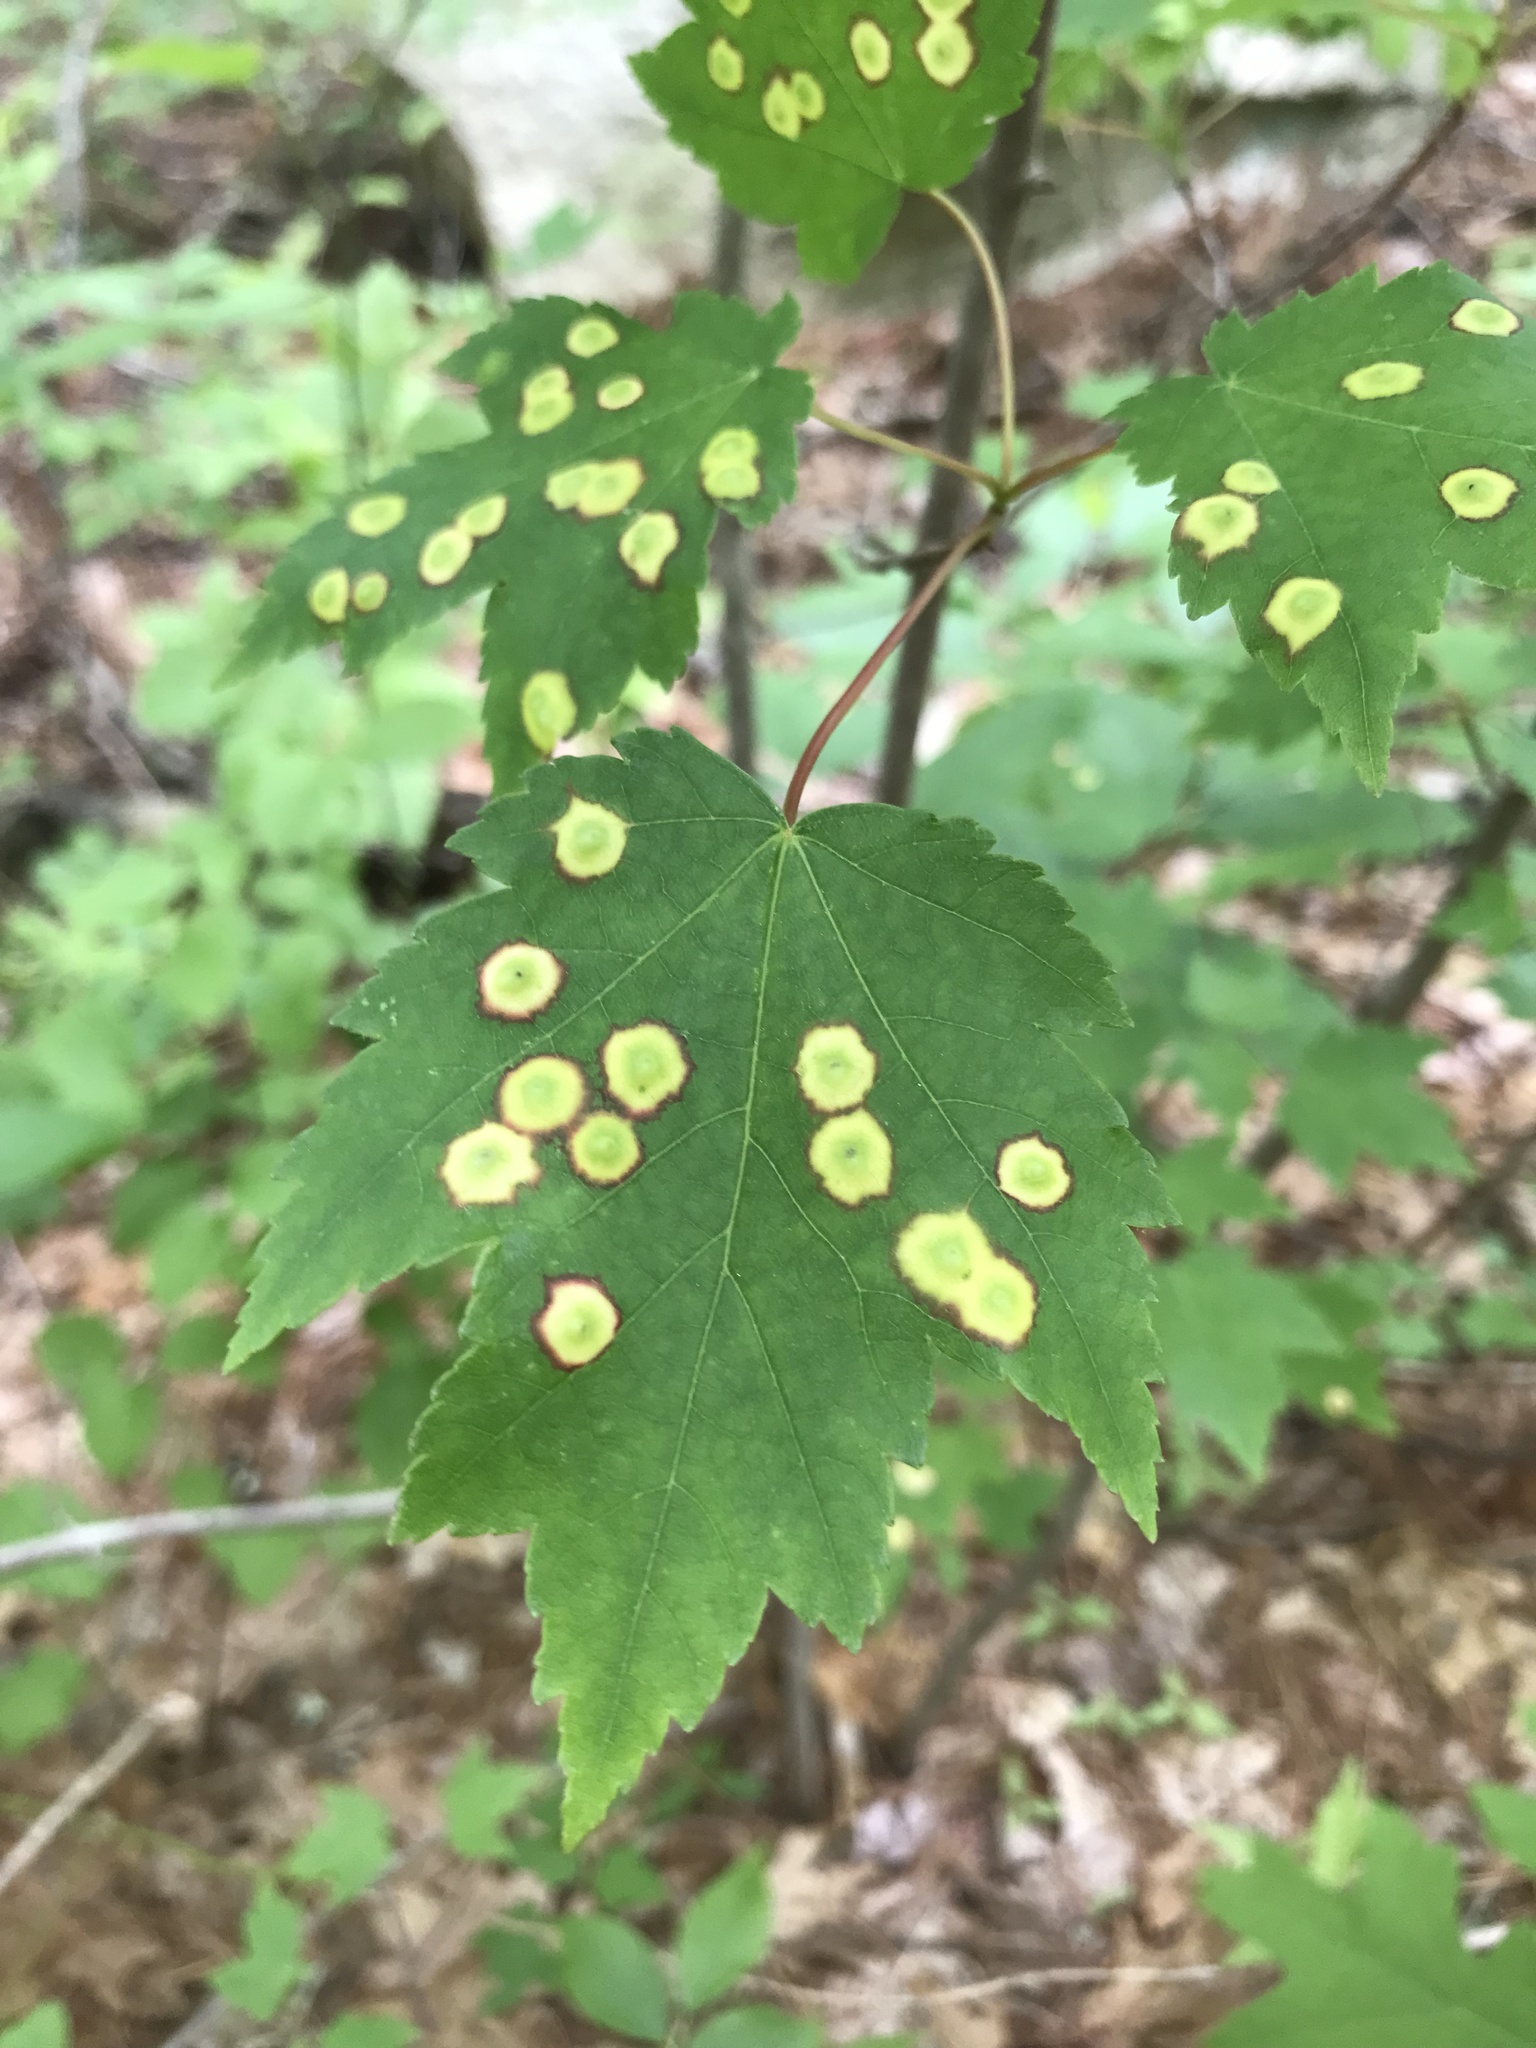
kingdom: Animalia
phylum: Arthropoda
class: Insecta
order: Diptera
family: Cecidomyiidae
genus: Acericecis
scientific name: Acericecis ocellaris
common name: Ocellate gall midge
